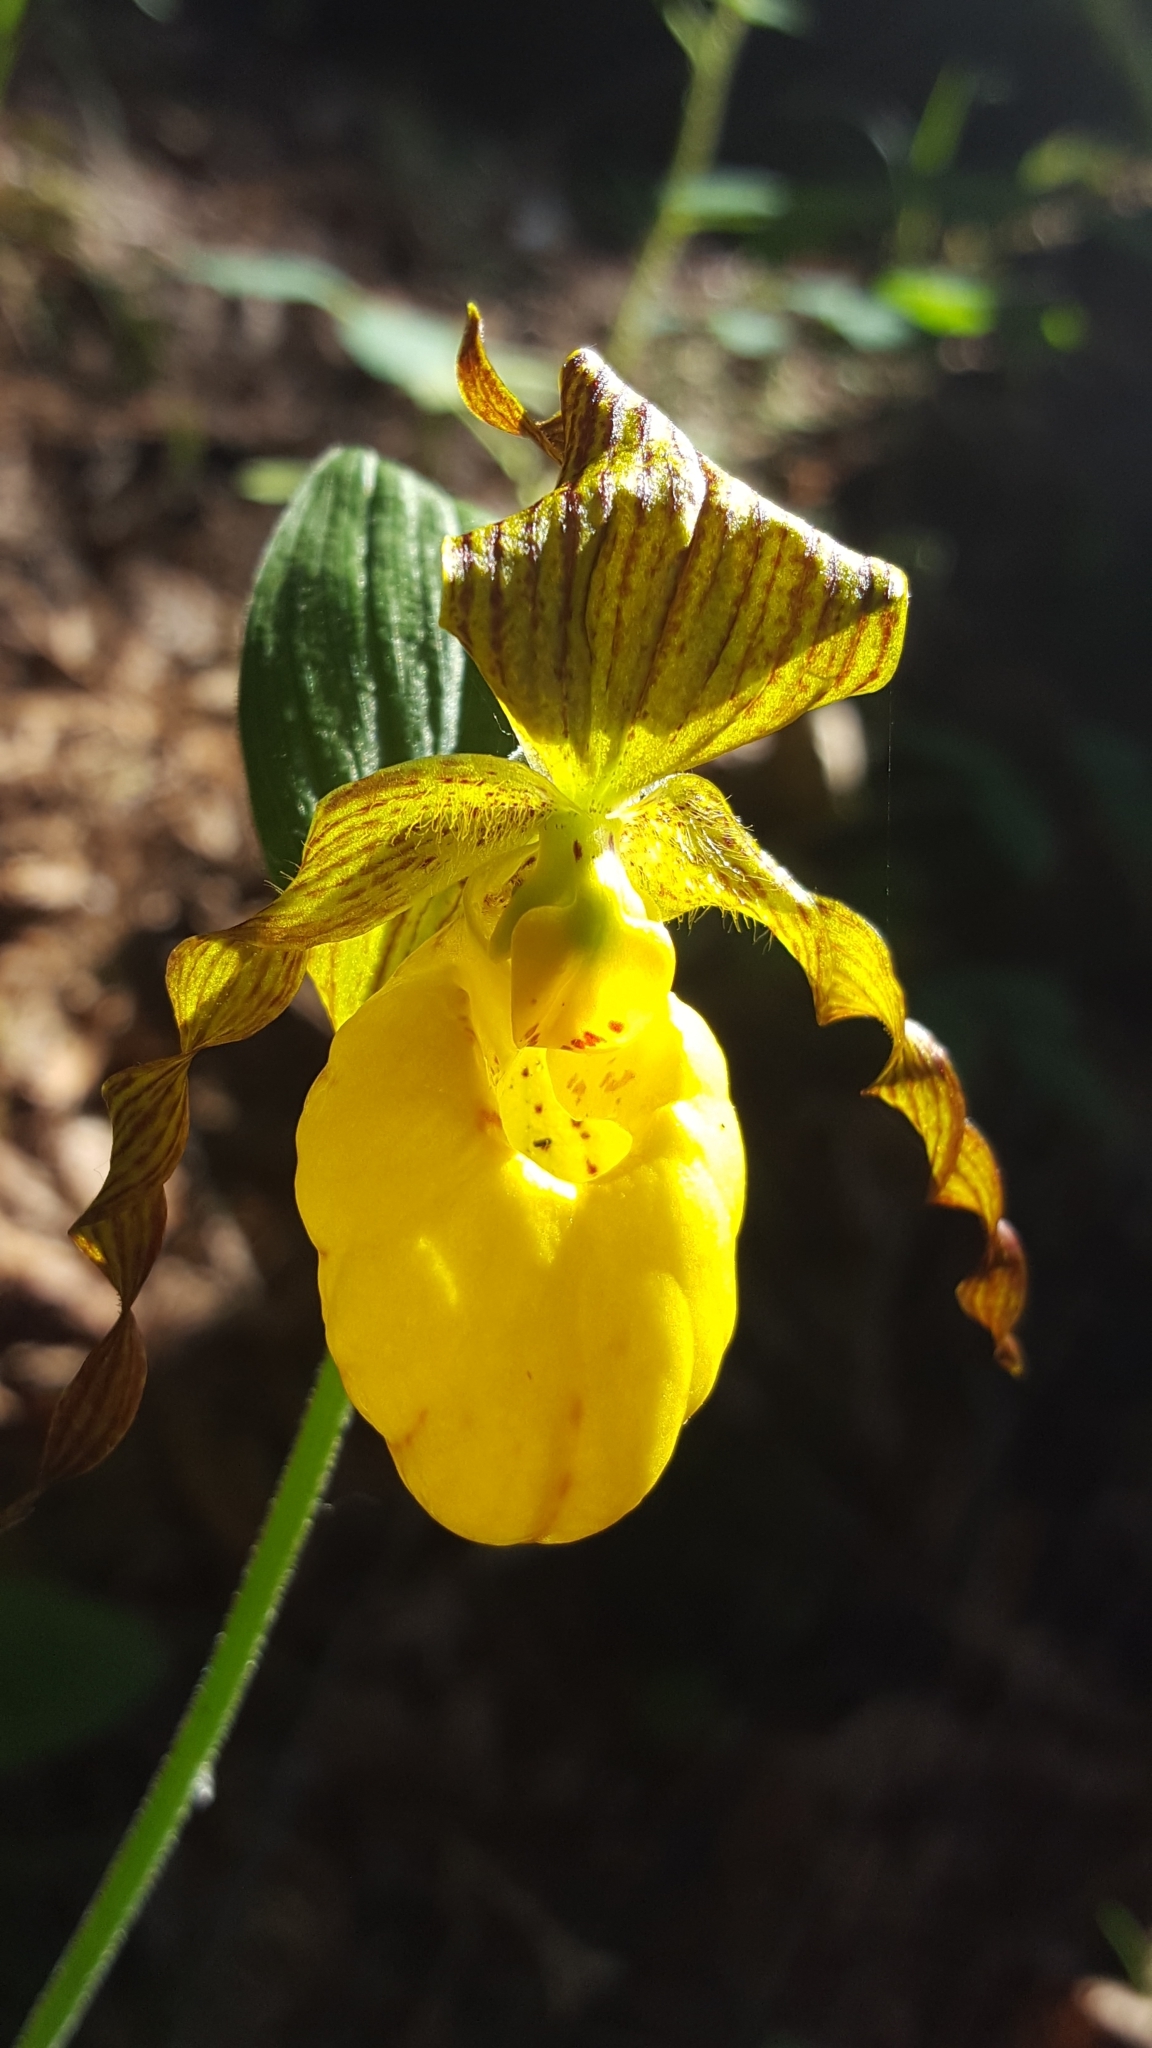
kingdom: Plantae
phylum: Tracheophyta
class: Liliopsida
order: Asparagales
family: Orchidaceae
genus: Cypripedium
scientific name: Cypripedium parviflorum
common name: American yellow lady's-slipper
